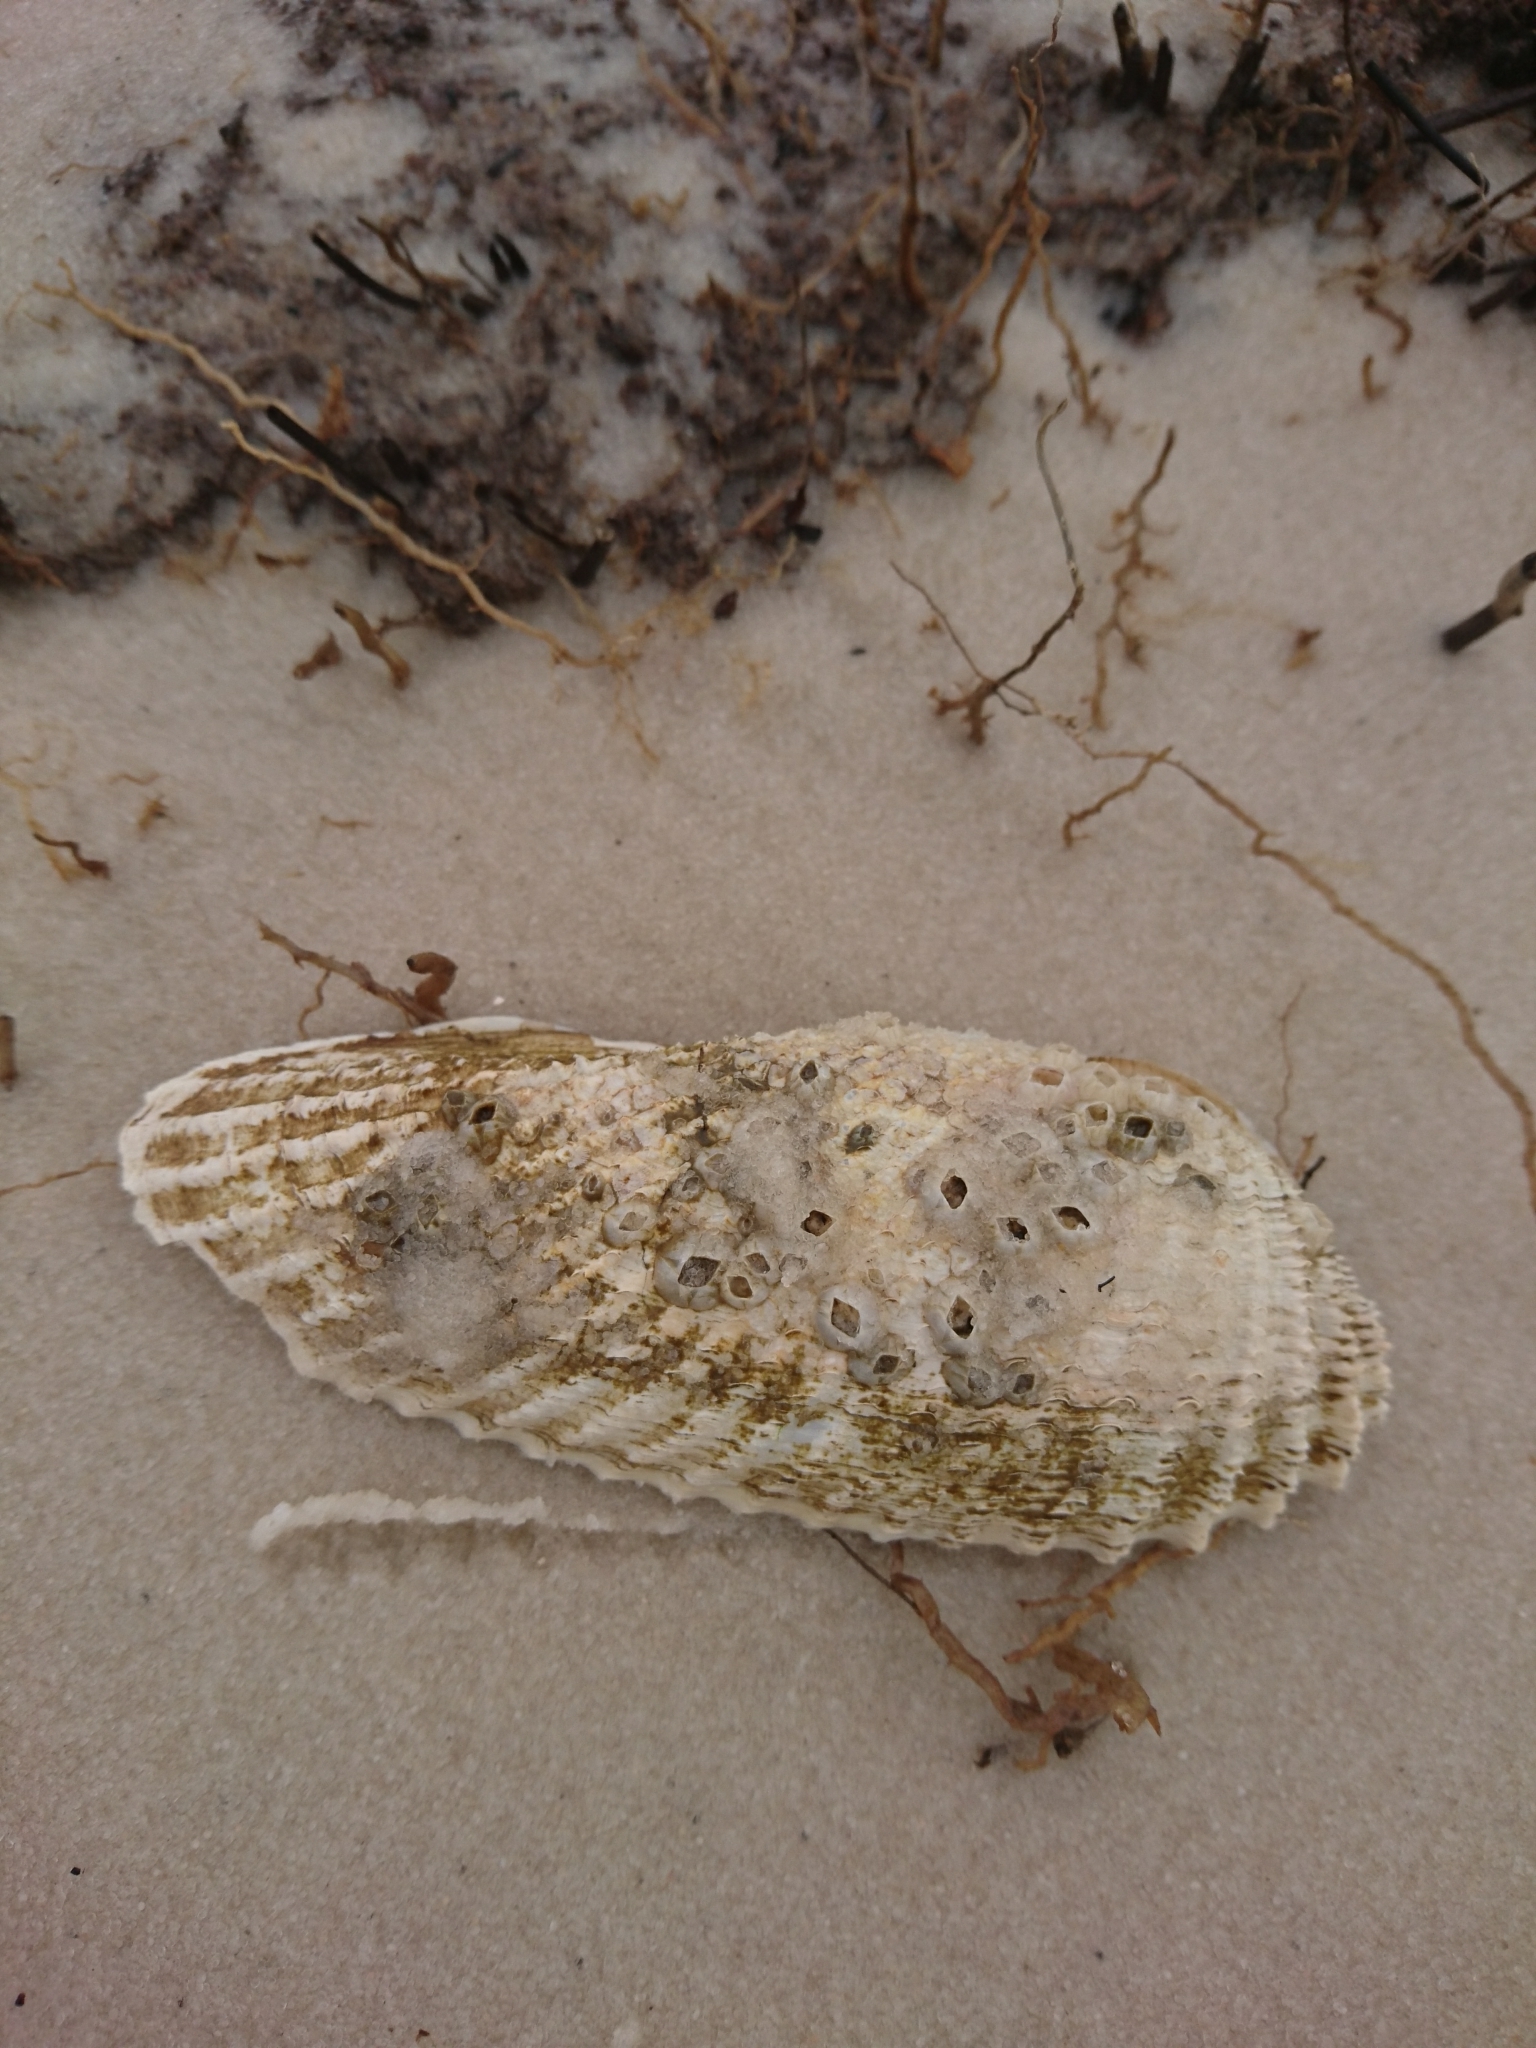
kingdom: Animalia
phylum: Mollusca
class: Bivalvia
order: Myida
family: Pholadidae
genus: Cyrtopleura
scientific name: Cyrtopleura costata
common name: Angel wing
